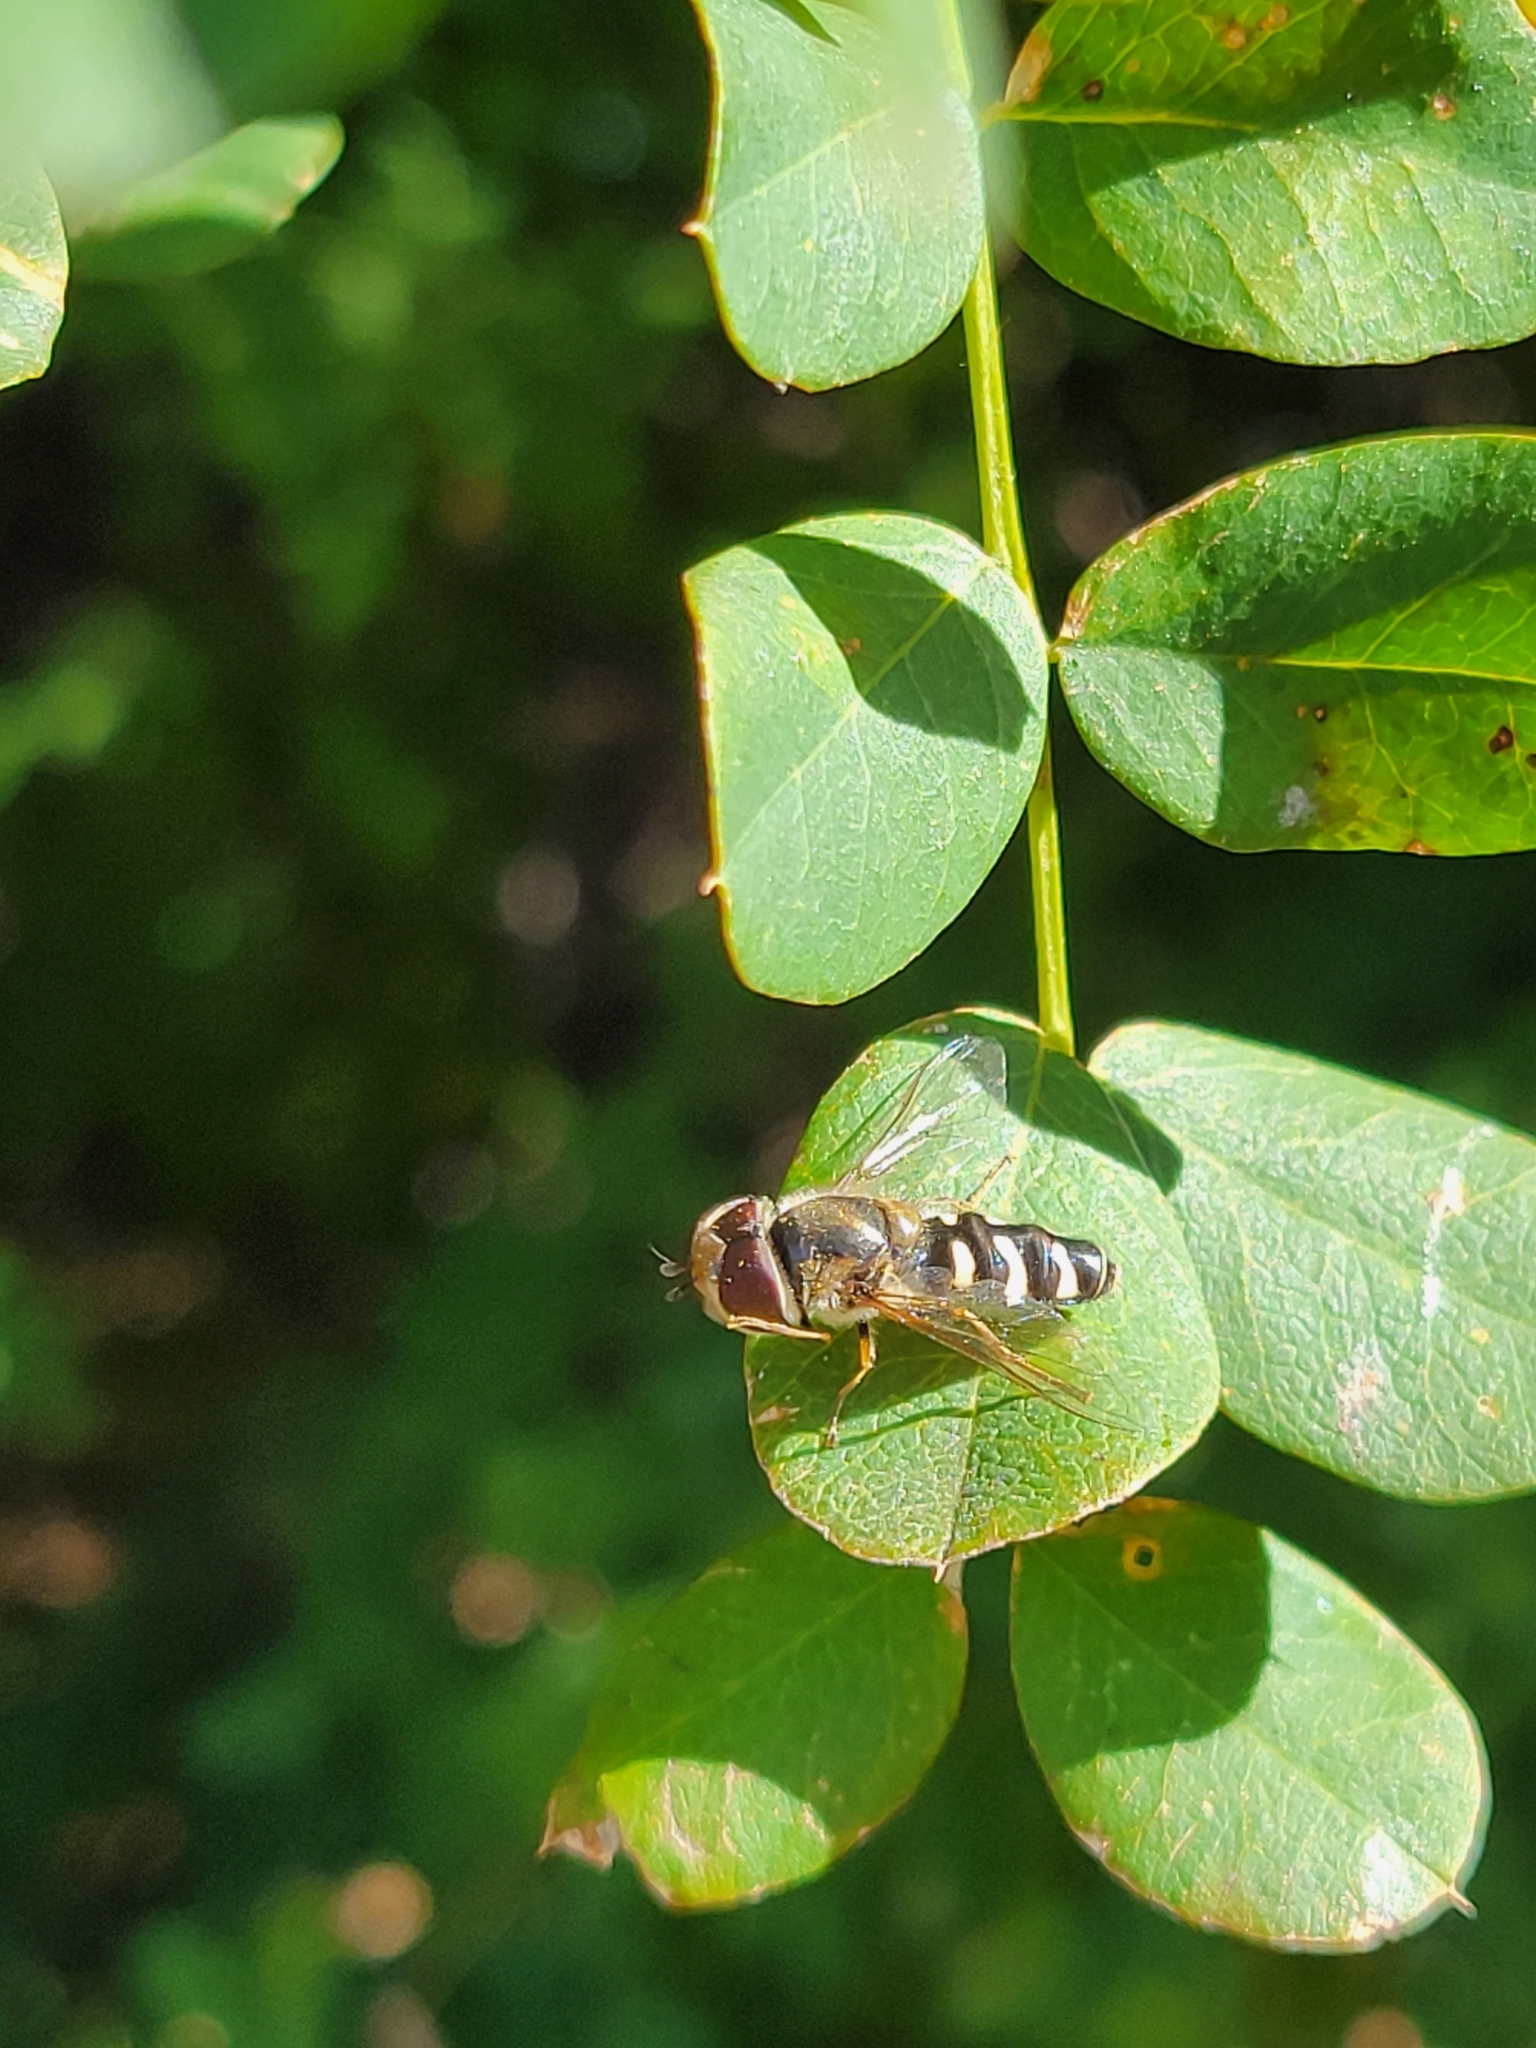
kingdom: Animalia
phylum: Arthropoda
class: Insecta
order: Diptera
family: Syrphidae
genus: Scaeva
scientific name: Scaeva affinis
